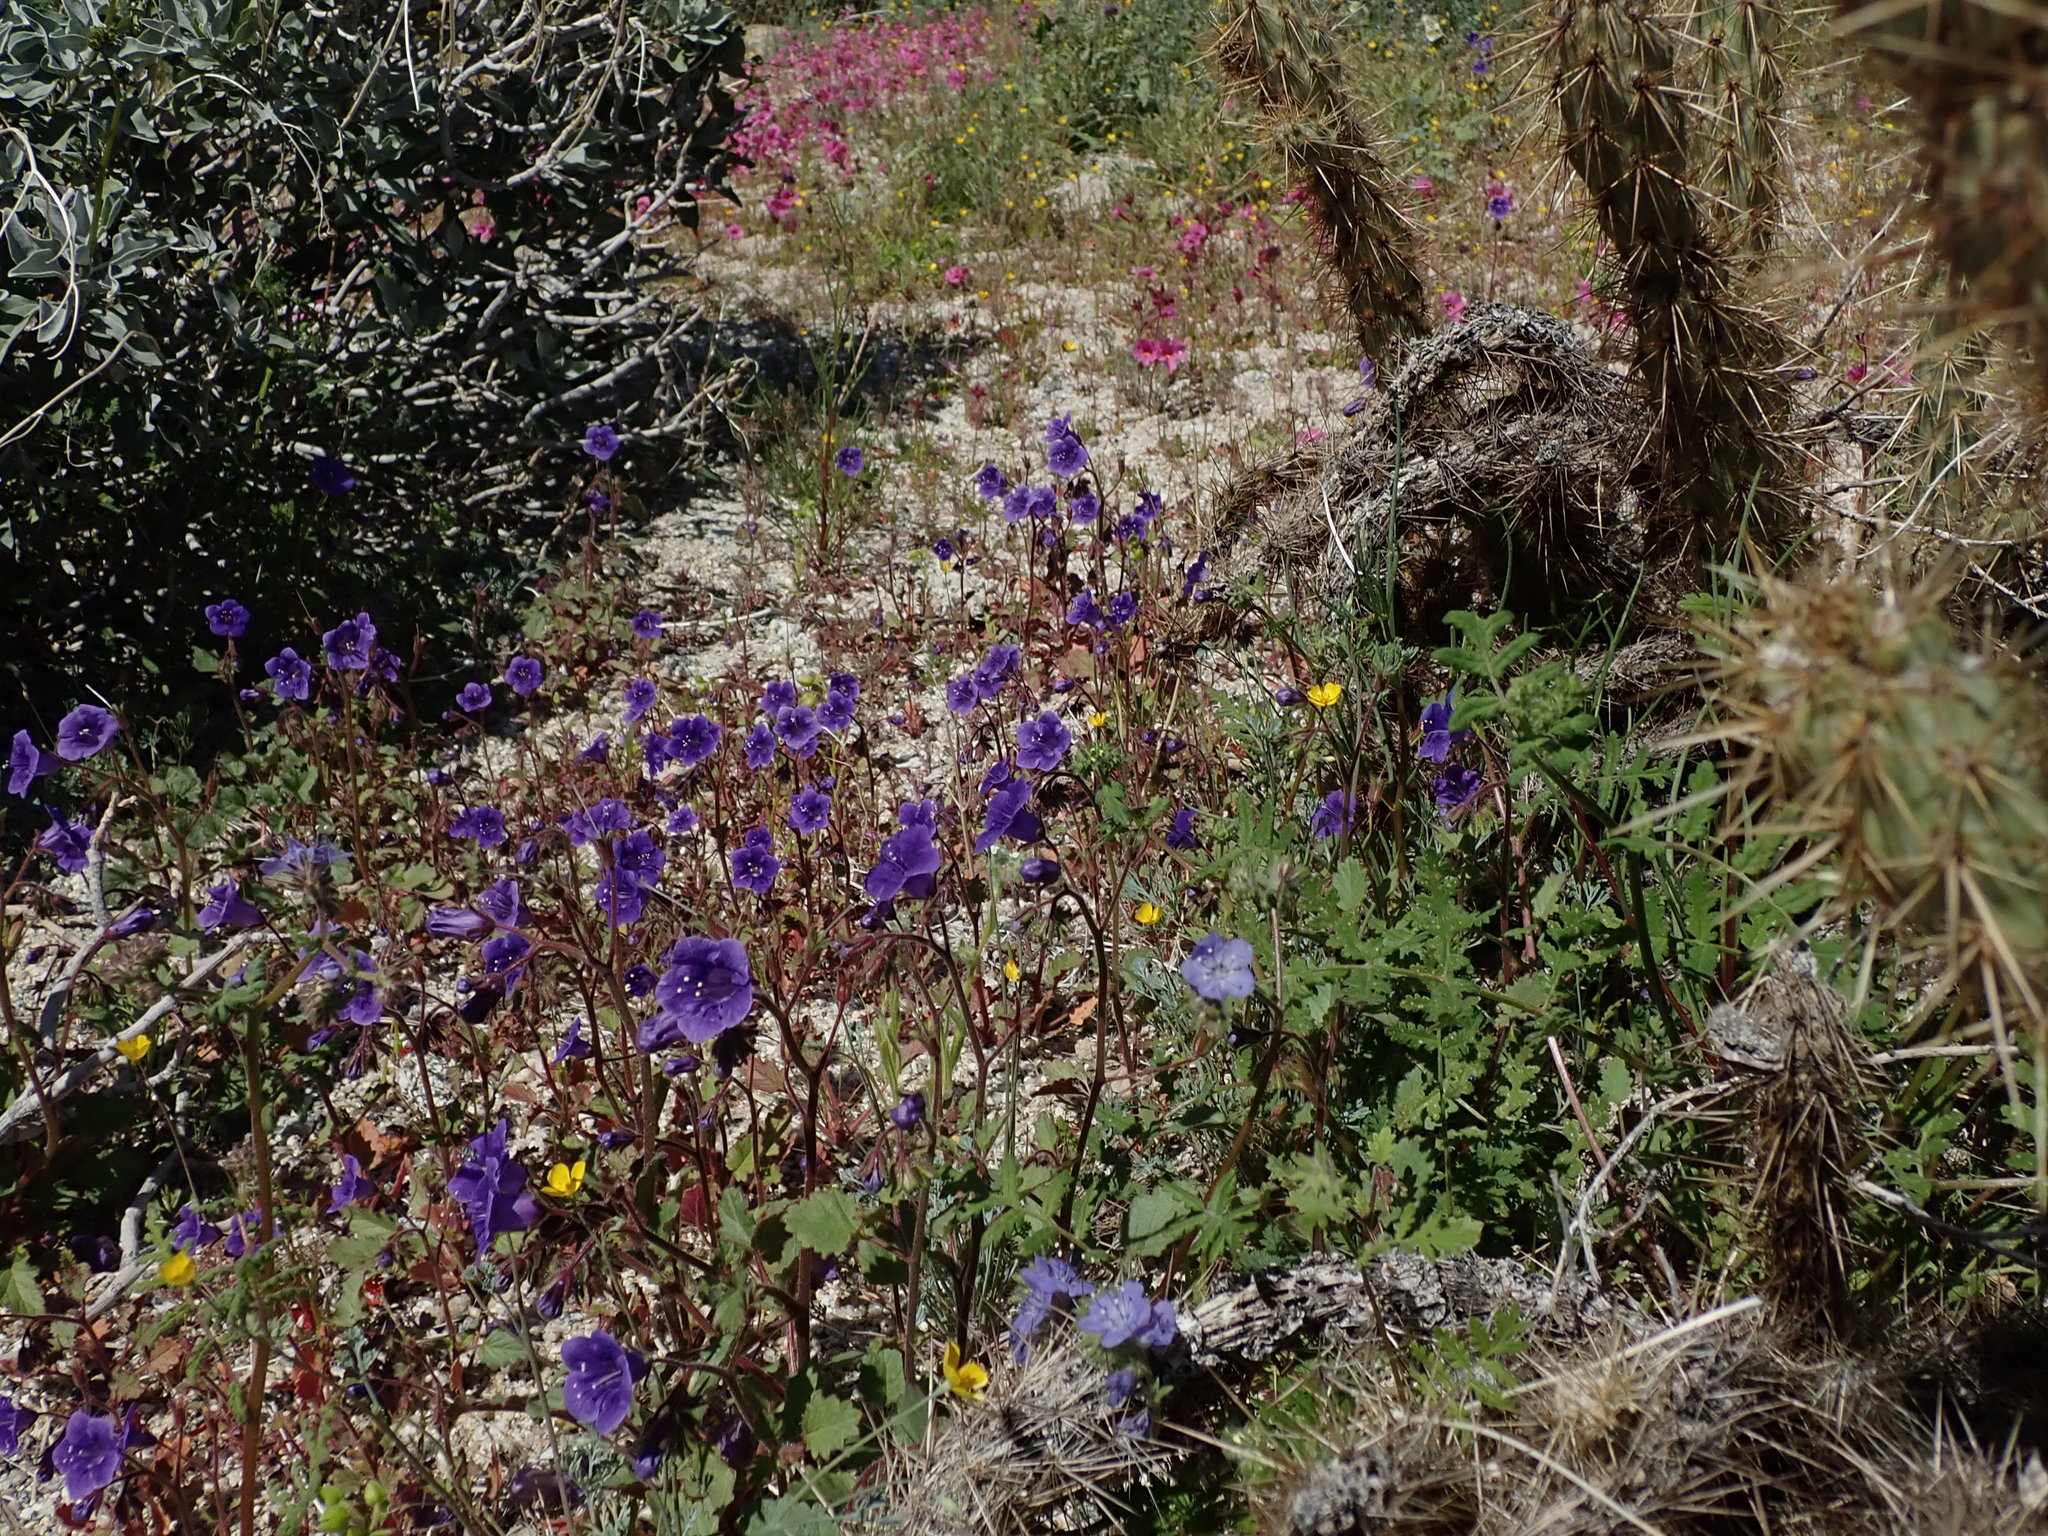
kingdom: Plantae
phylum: Tracheophyta
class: Magnoliopsida
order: Boraginales
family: Hydrophyllaceae
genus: Phacelia
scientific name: Phacelia minor
